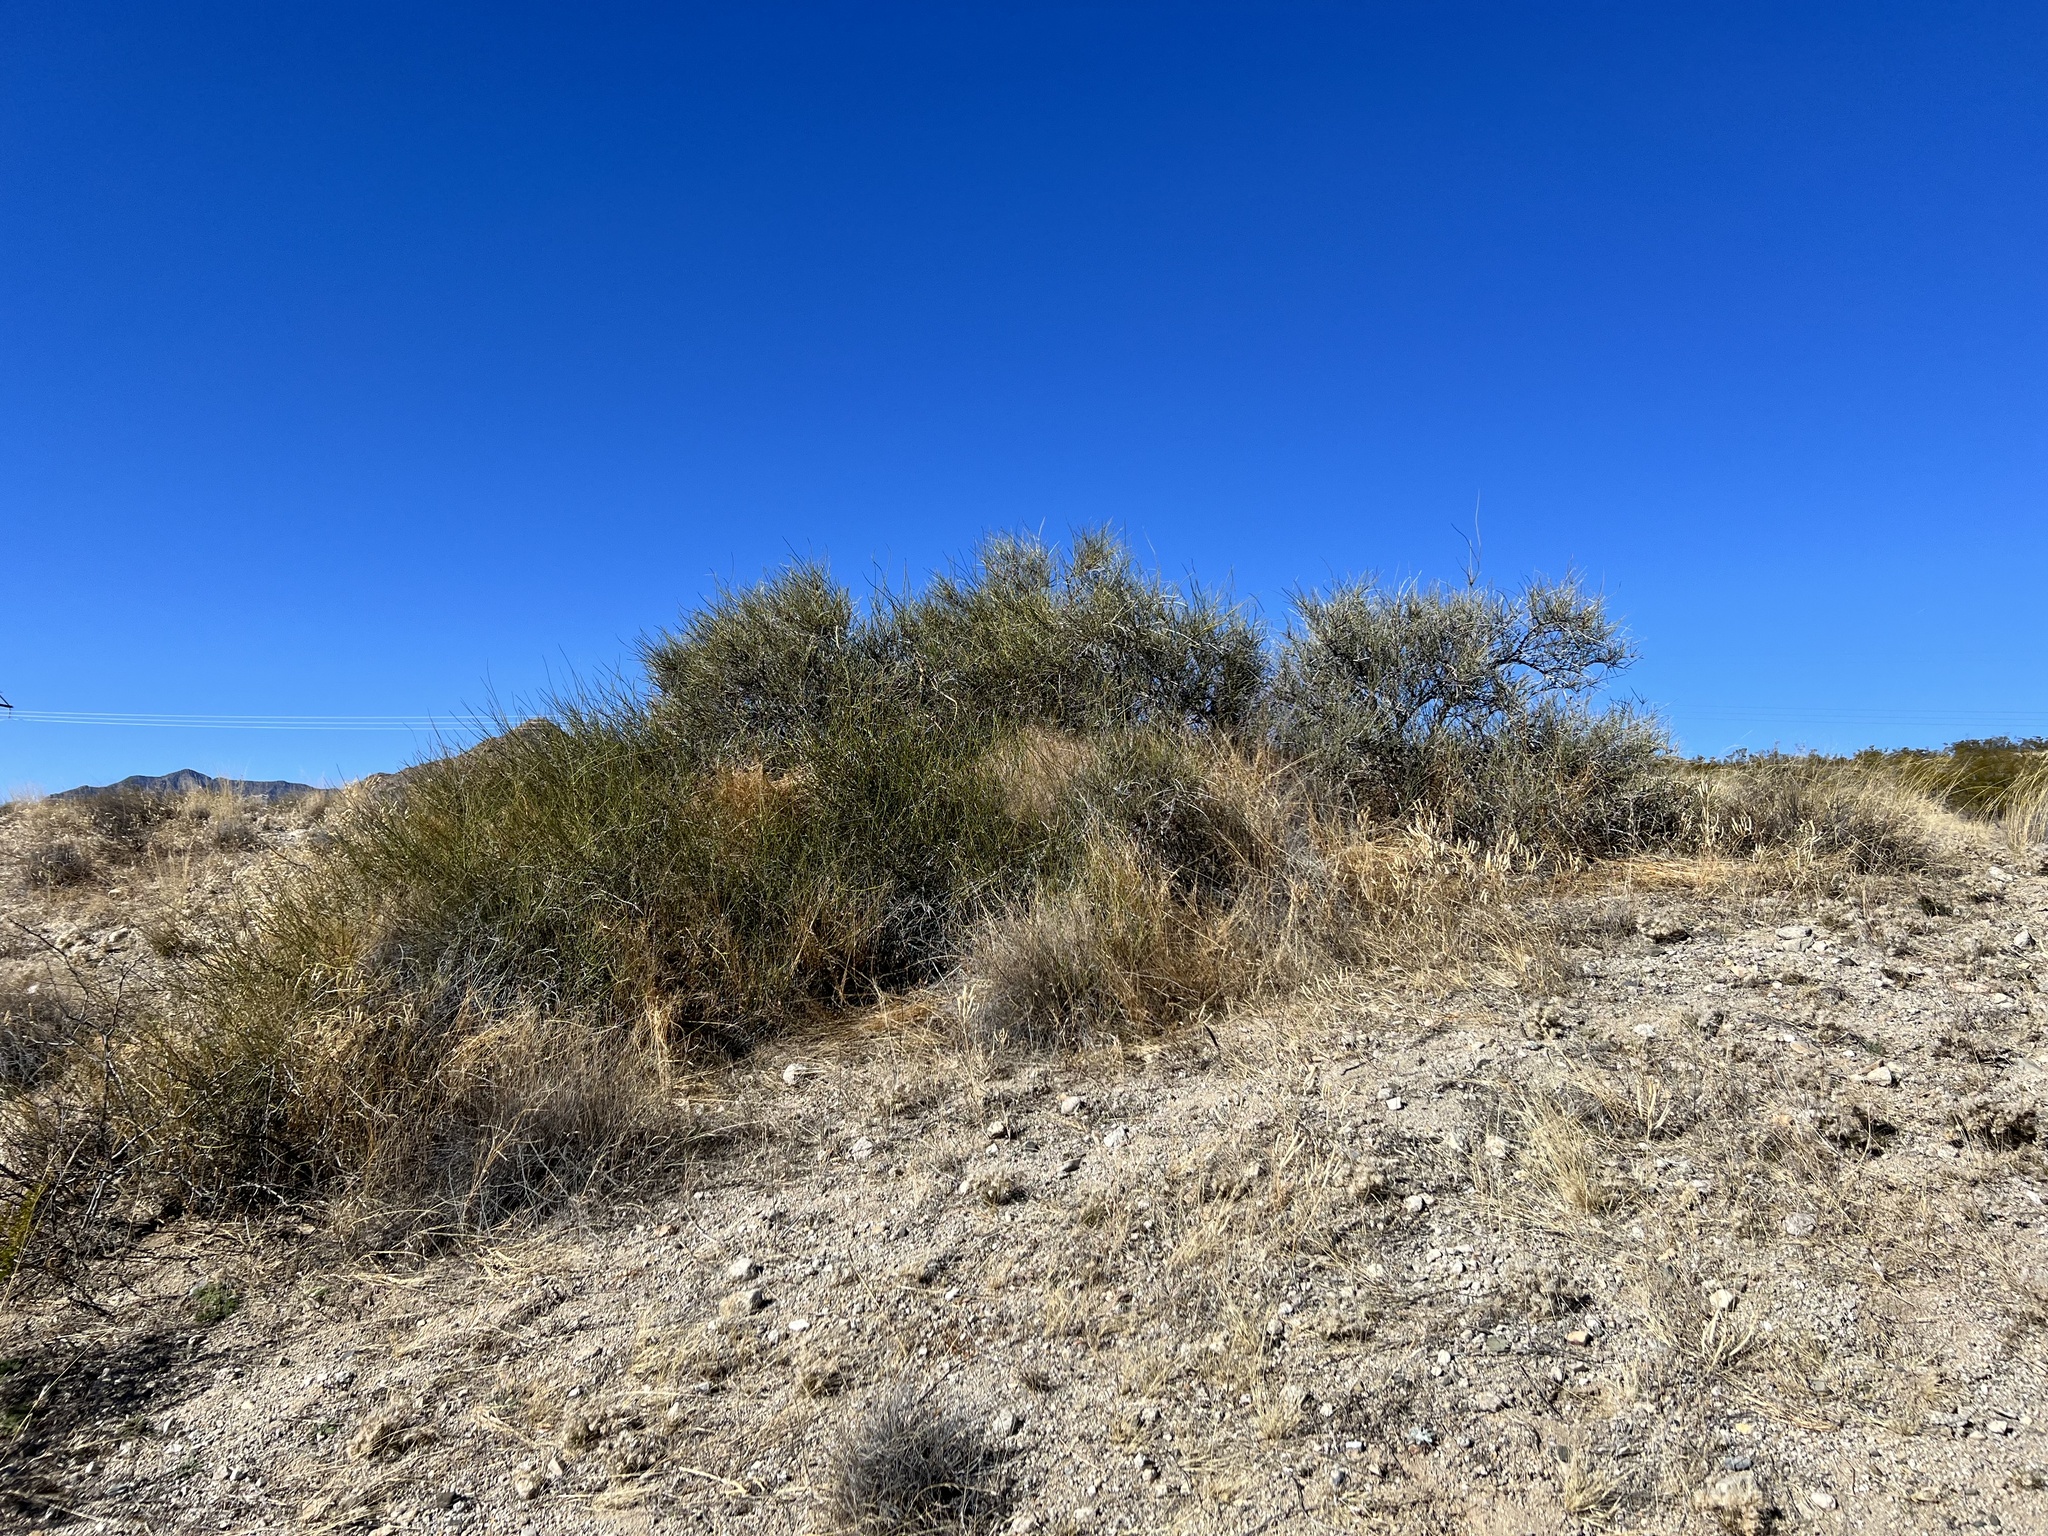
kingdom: Plantae
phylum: Tracheophyta
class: Gnetopsida
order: Ephedrales
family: Ephedraceae
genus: Ephedra
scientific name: Ephedra trifurca
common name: Mexican-tea
